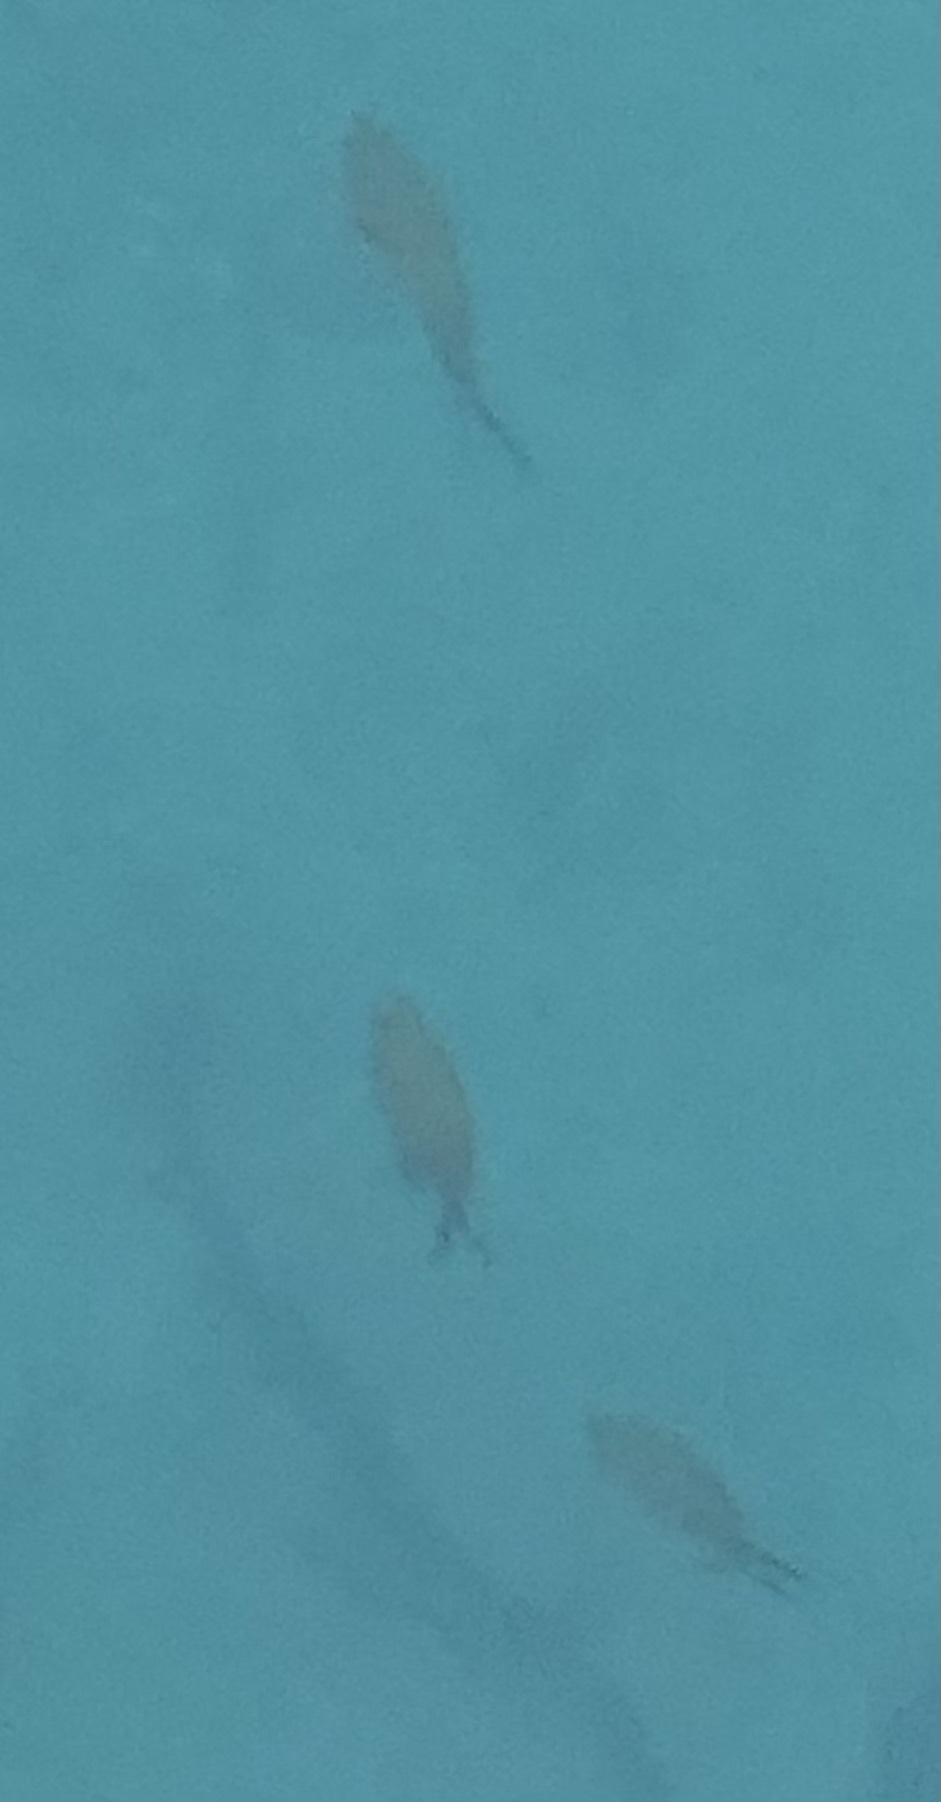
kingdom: Animalia
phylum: Chordata
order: Perciformes
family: Pomacentridae
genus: Chromis
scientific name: Chromis chromis
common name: Damselfish
